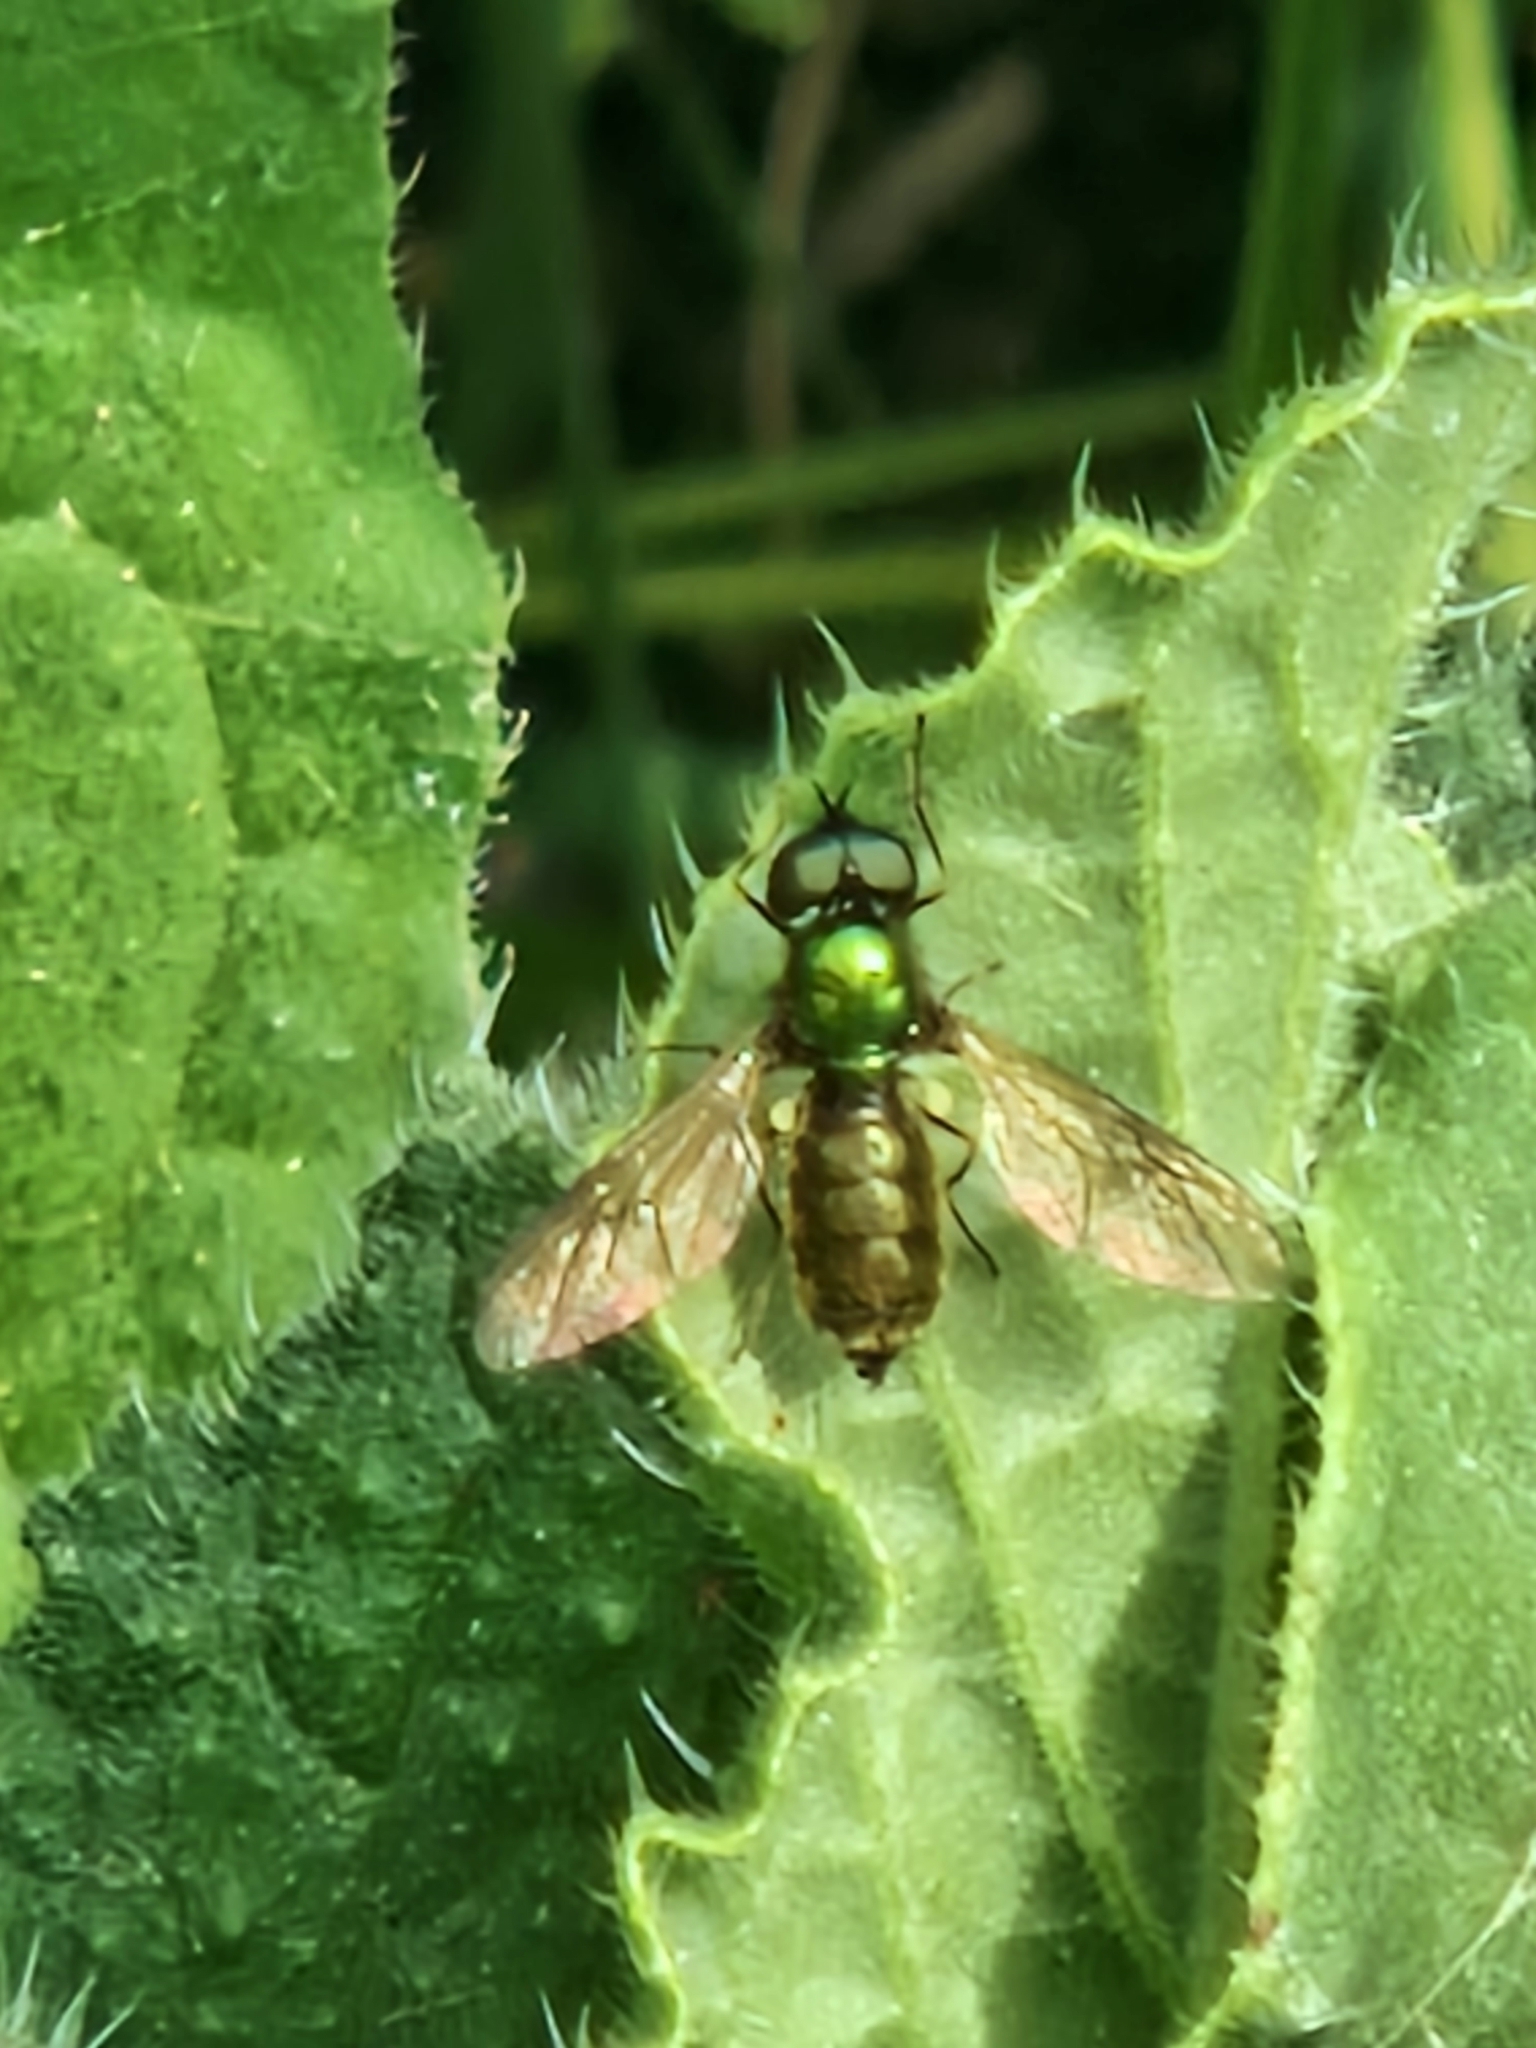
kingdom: Animalia
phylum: Arthropoda
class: Insecta
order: Diptera
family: Stratiomyidae
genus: Chloromyia
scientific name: Chloromyia formosa
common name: Soldier fly
